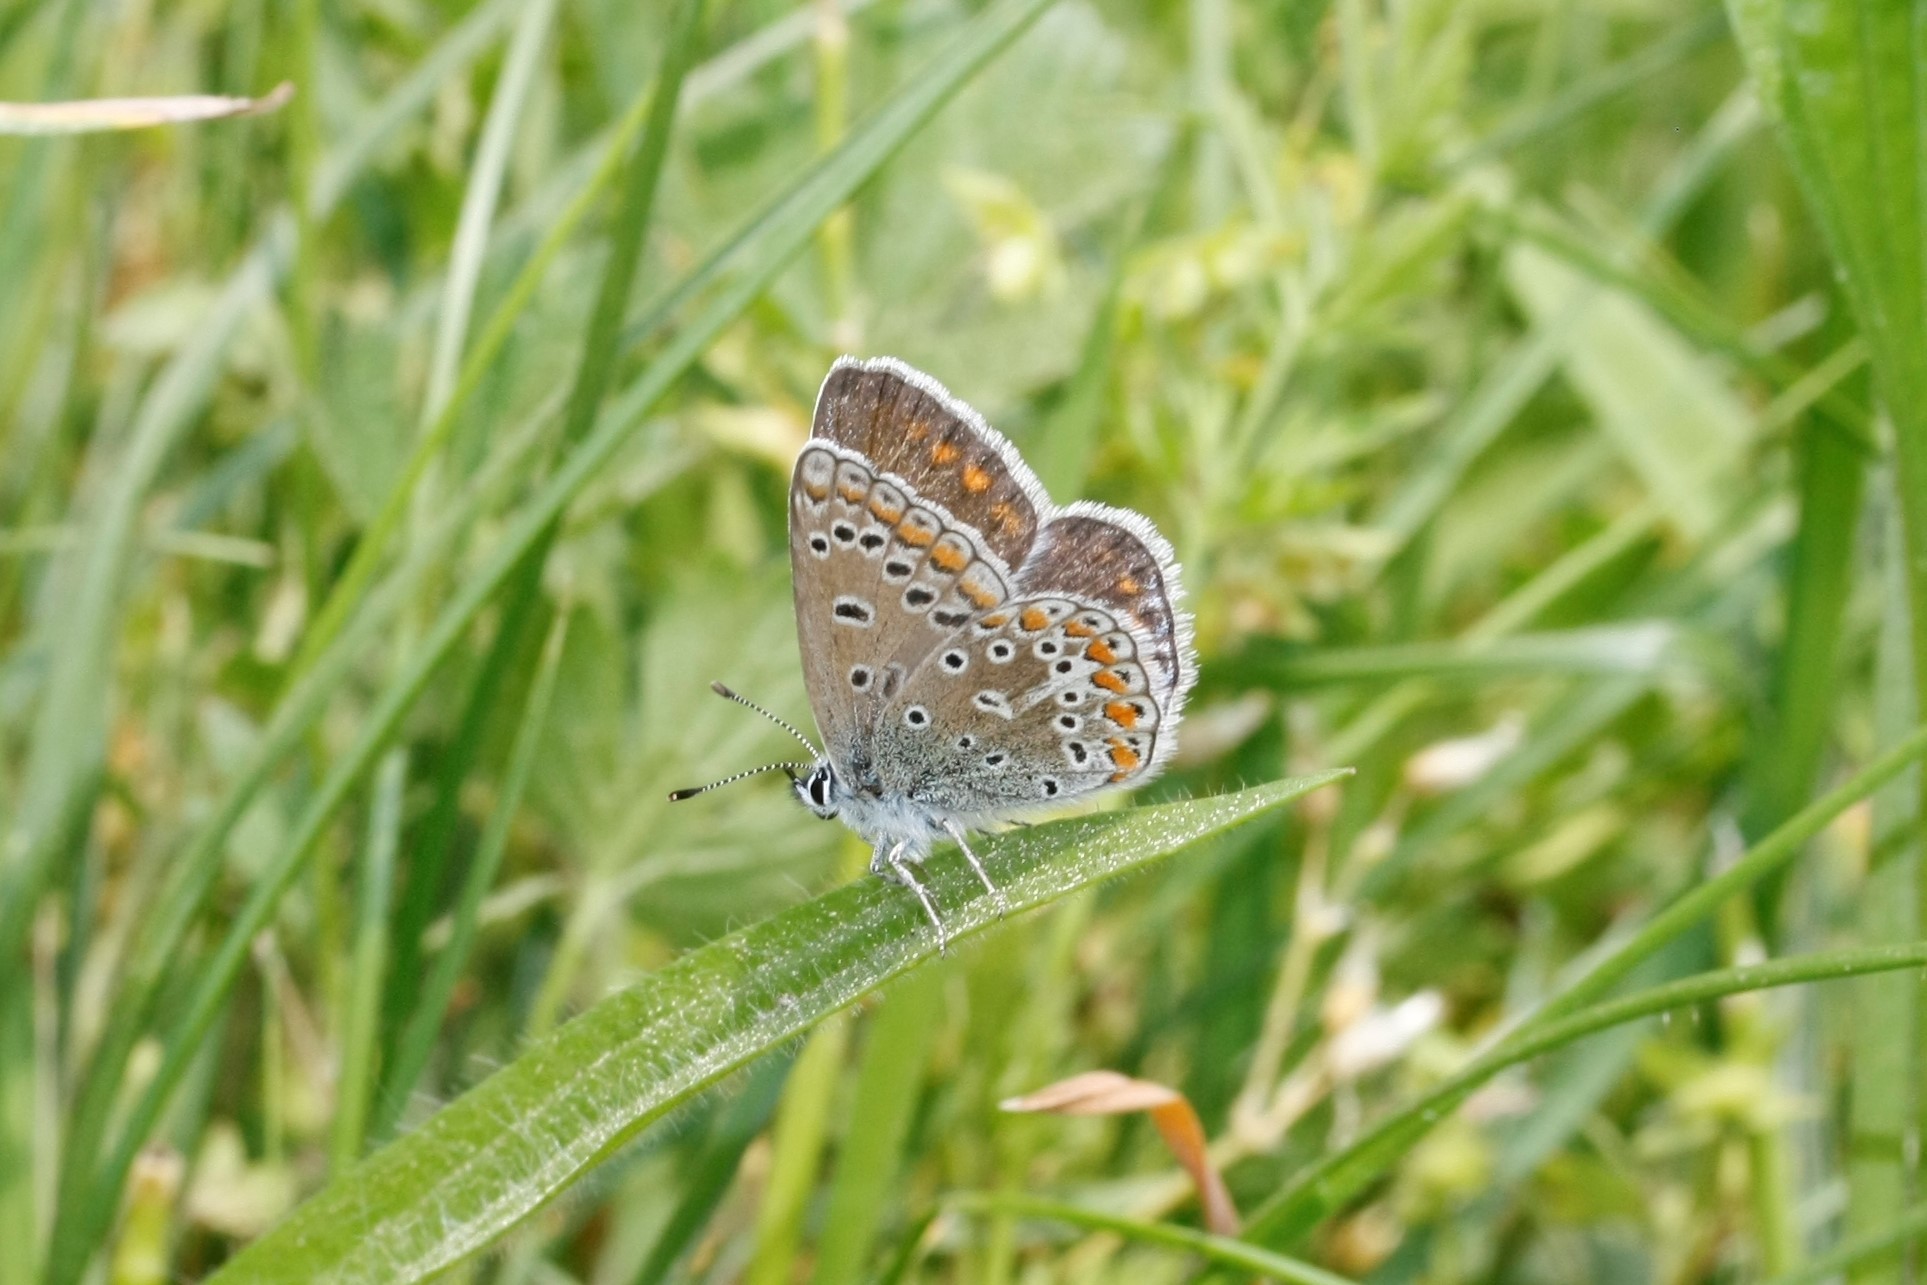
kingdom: Animalia
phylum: Arthropoda
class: Insecta
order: Lepidoptera
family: Lycaenidae
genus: Polyommatus
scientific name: Polyommatus icarus
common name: Common blue
